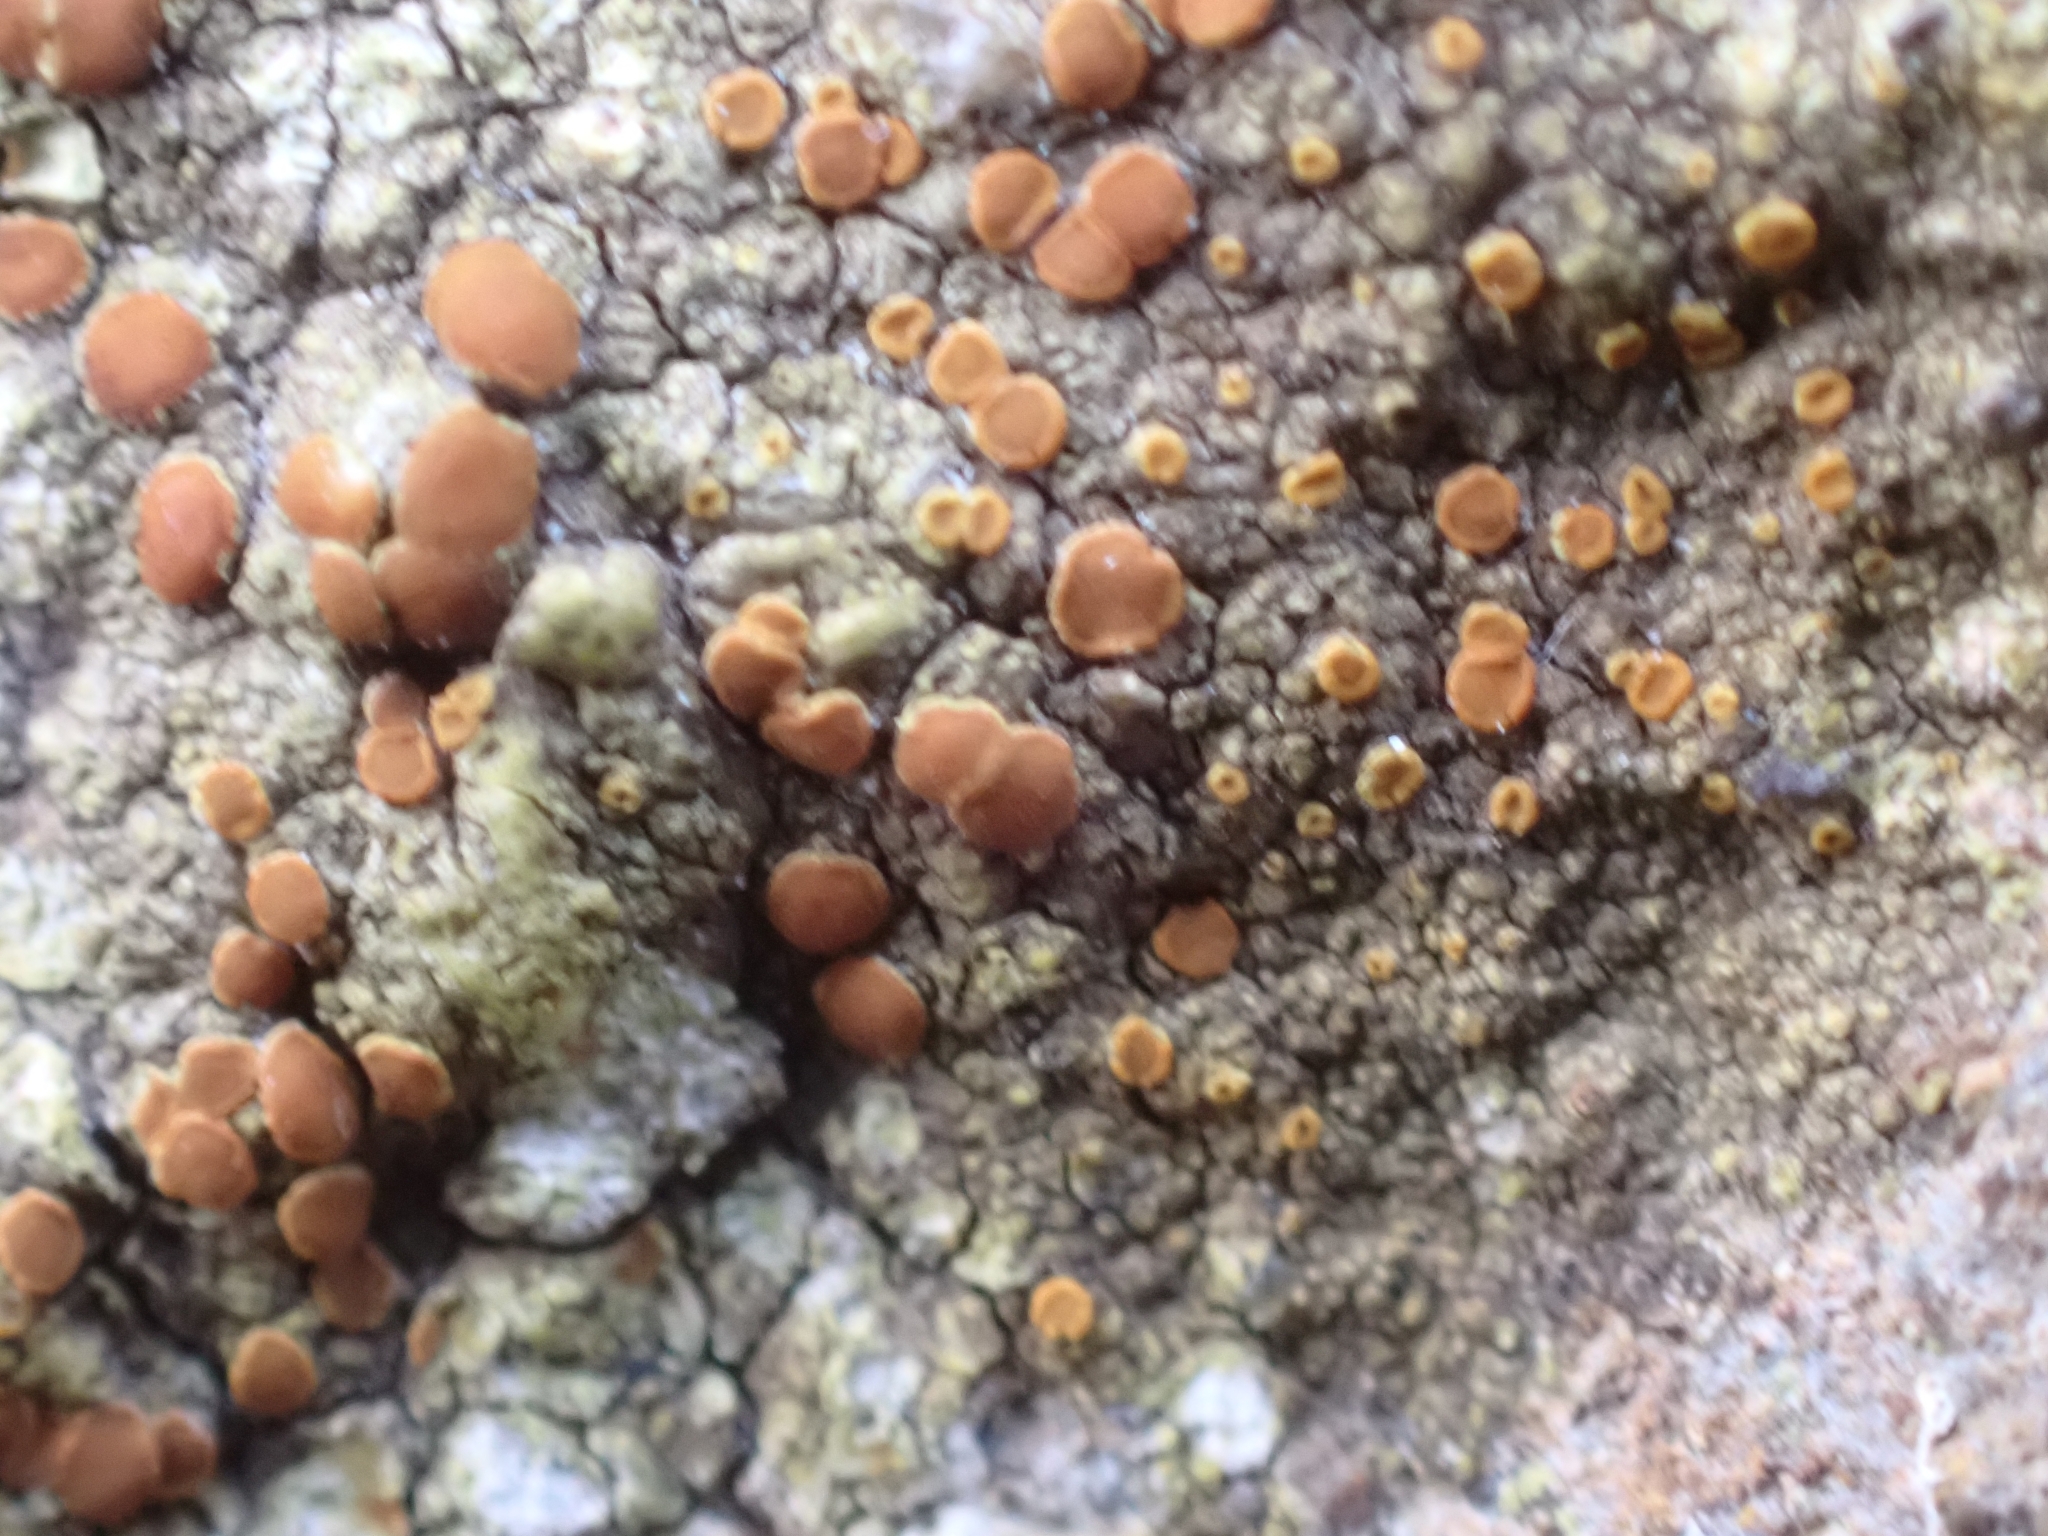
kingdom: Fungi
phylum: Ascomycota
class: Lecanoromycetes
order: Teloschistales
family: Teloschistaceae
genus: Gyalolechia
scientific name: Gyalolechia flavovirescens
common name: Sulphur firedot
